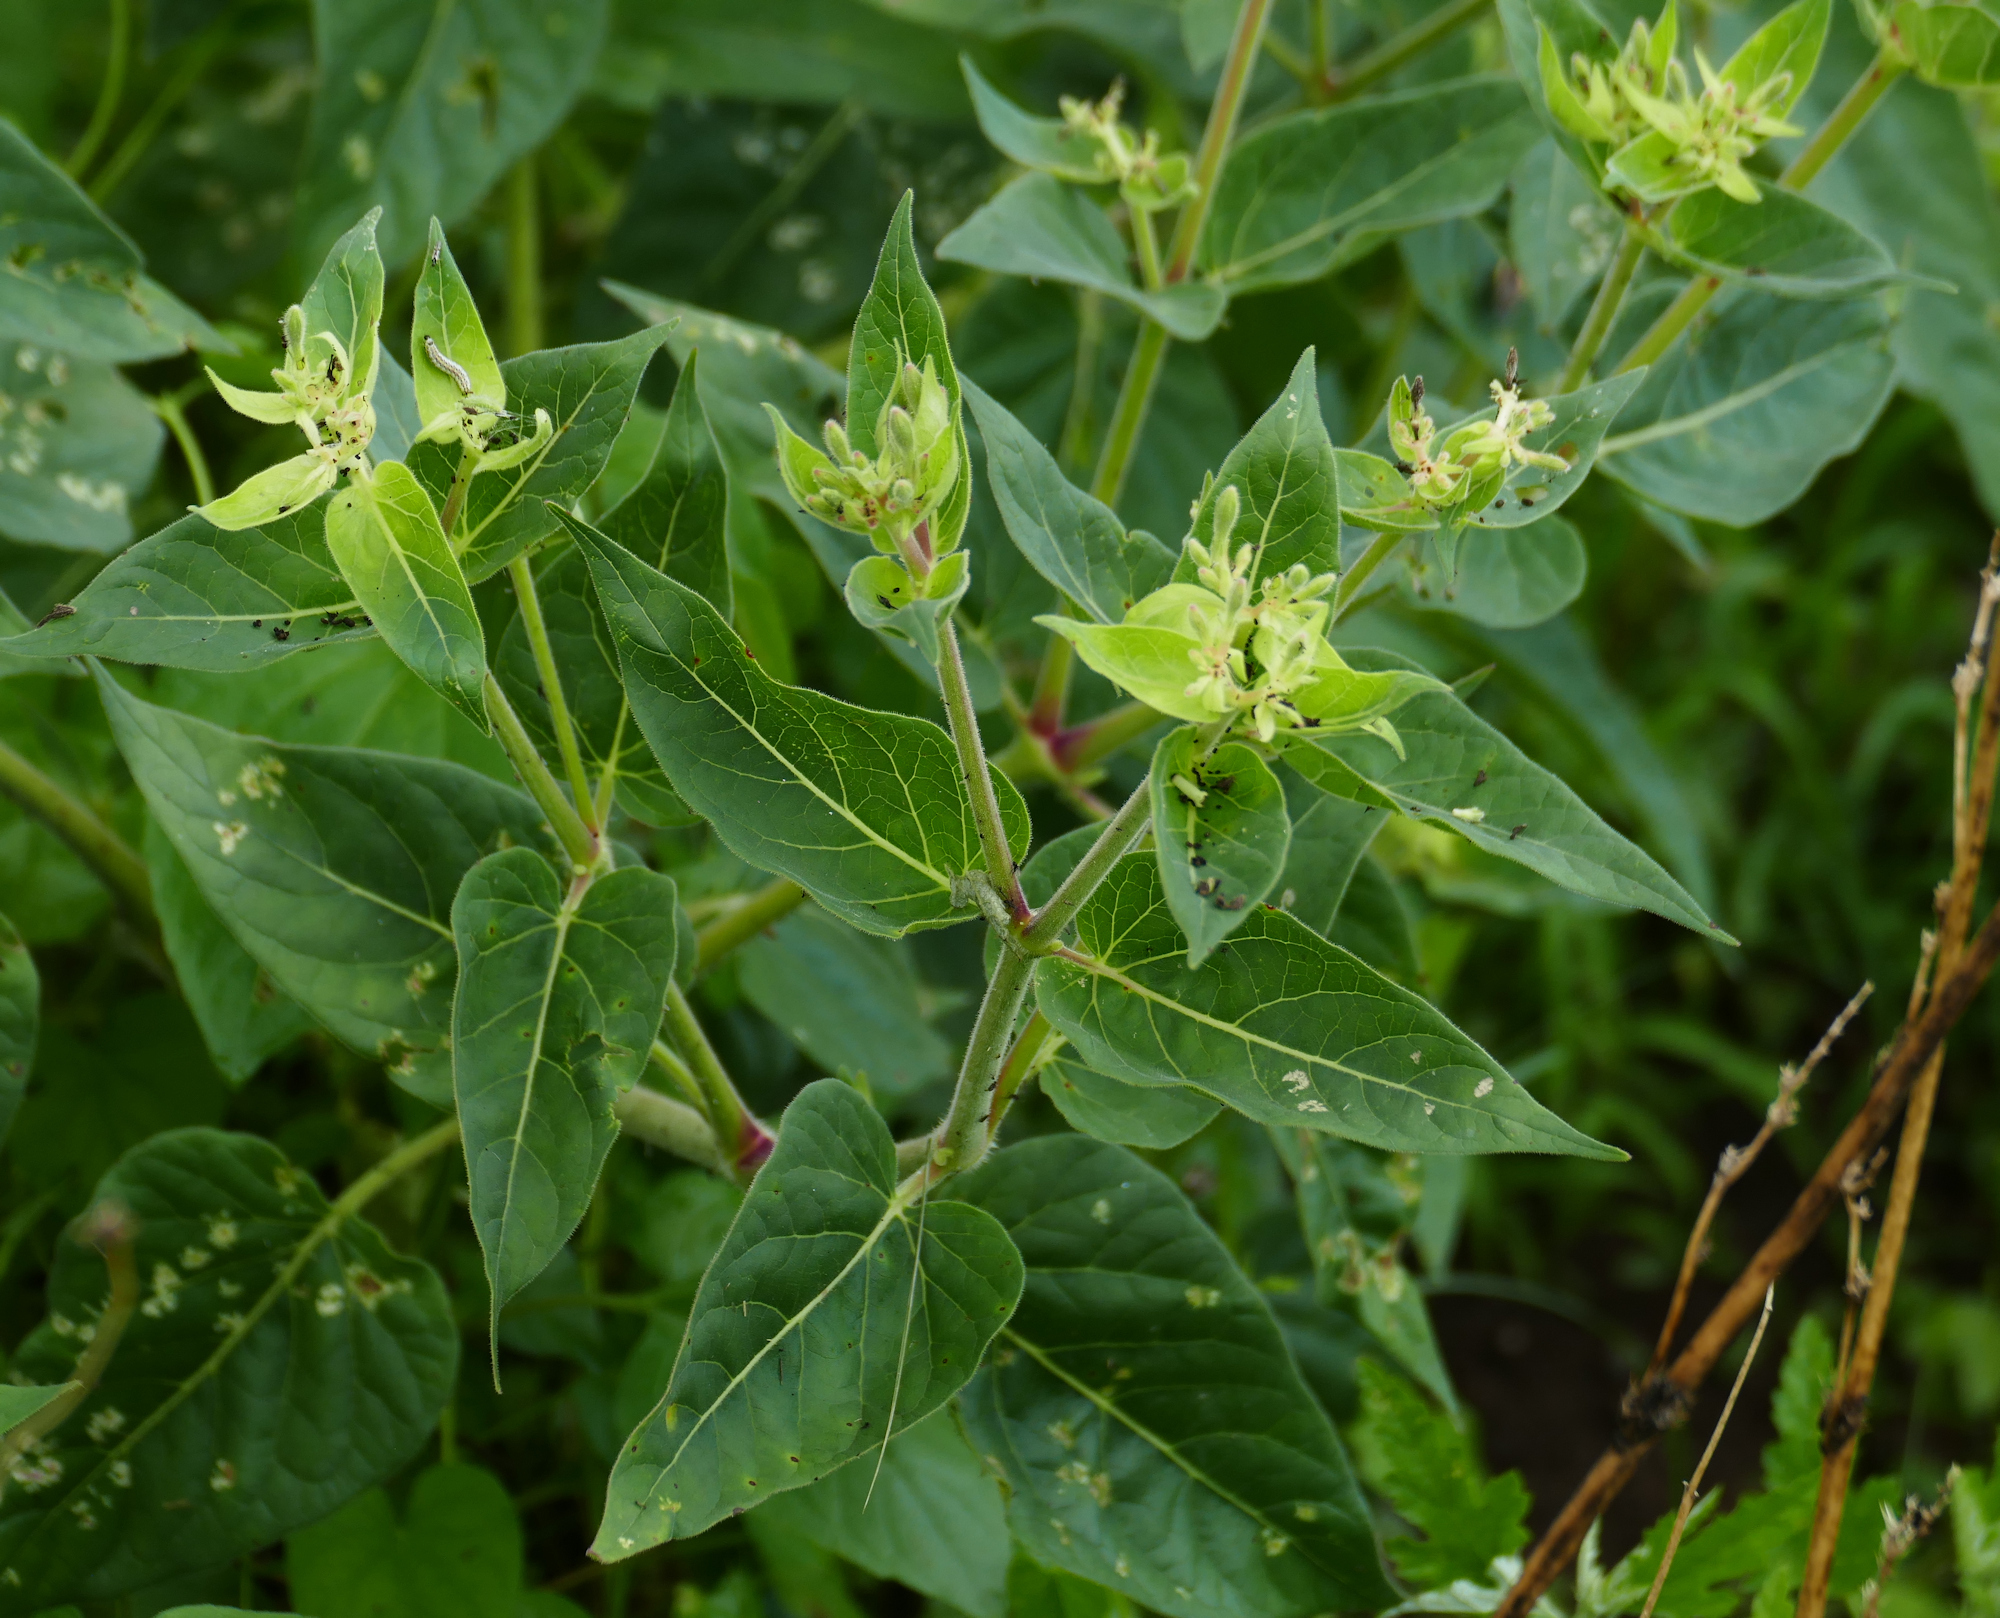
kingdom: Plantae
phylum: Tracheophyta
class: Magnoliopsida
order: Caryophyllales
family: Nyctaginaceae
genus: Mirabilis
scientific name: Mirabilis longiflora
